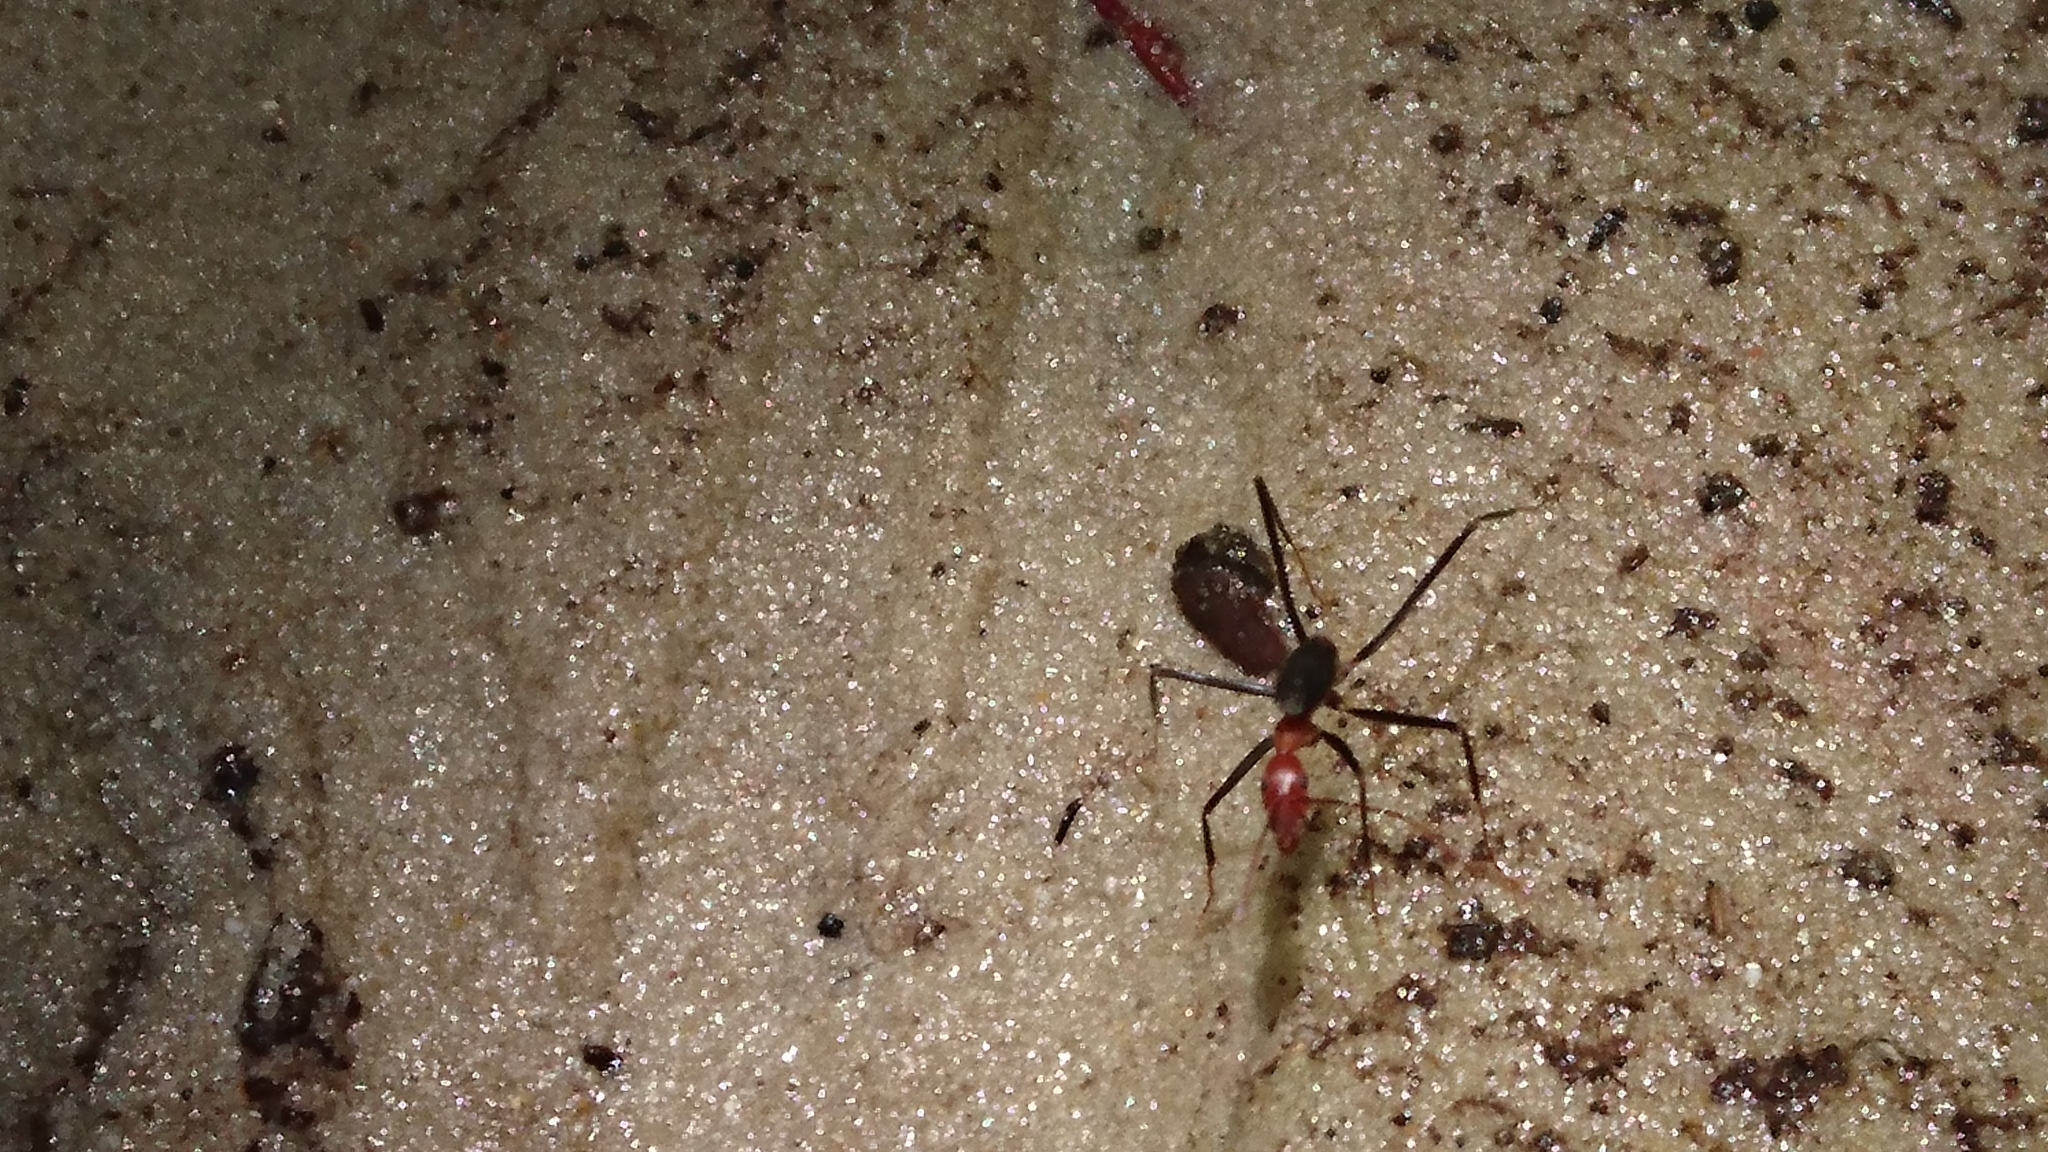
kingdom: Animalia
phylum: Arthropoda
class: Insecta
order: Hymenoptera
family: Formicidae
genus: Leptomyrmex
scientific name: Leptomyrmex rufithorax
